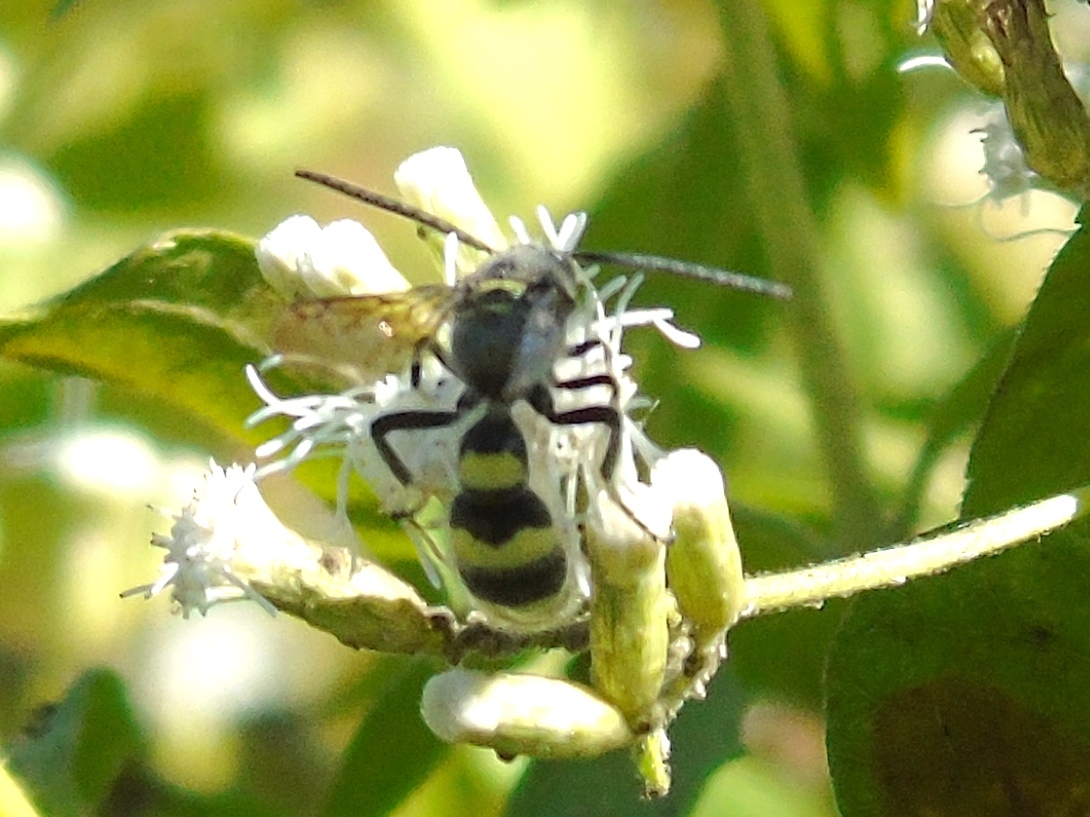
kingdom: Animalia
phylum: Arthropoda
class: Insecta
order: Hymenoptera
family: Scoliidae
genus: Dielis
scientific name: Dielis tolteca
